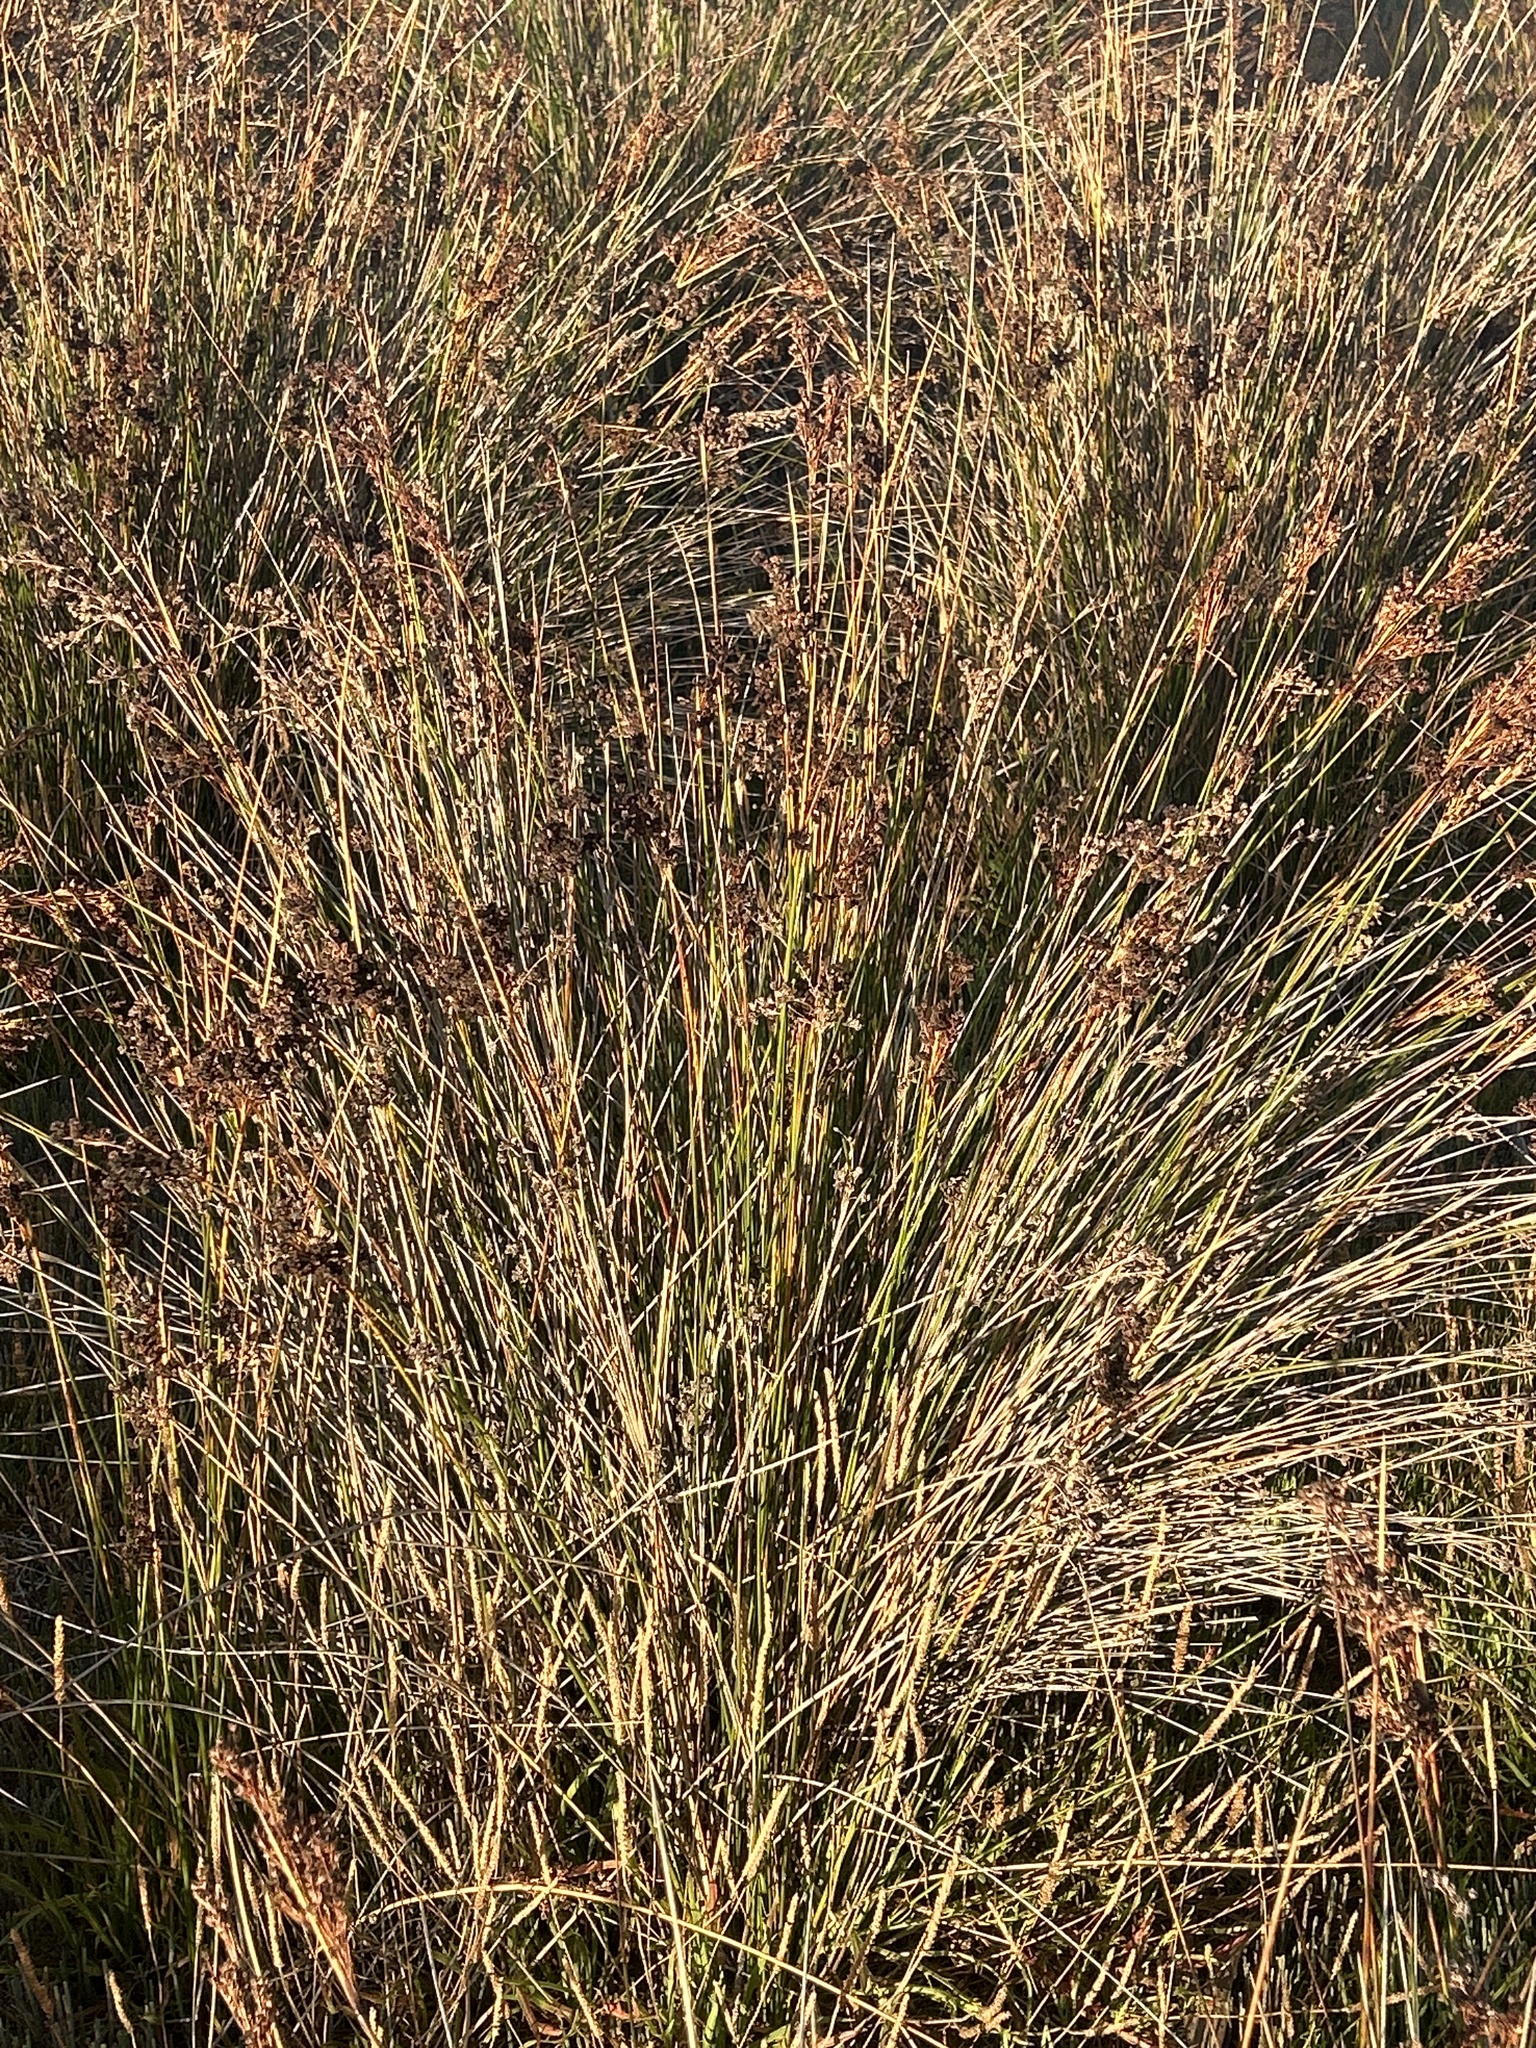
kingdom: Plantae
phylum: Tracheophyta
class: Liliopsida
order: Poales
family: Juncaceae
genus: Juncus
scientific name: Juncus kraussii
